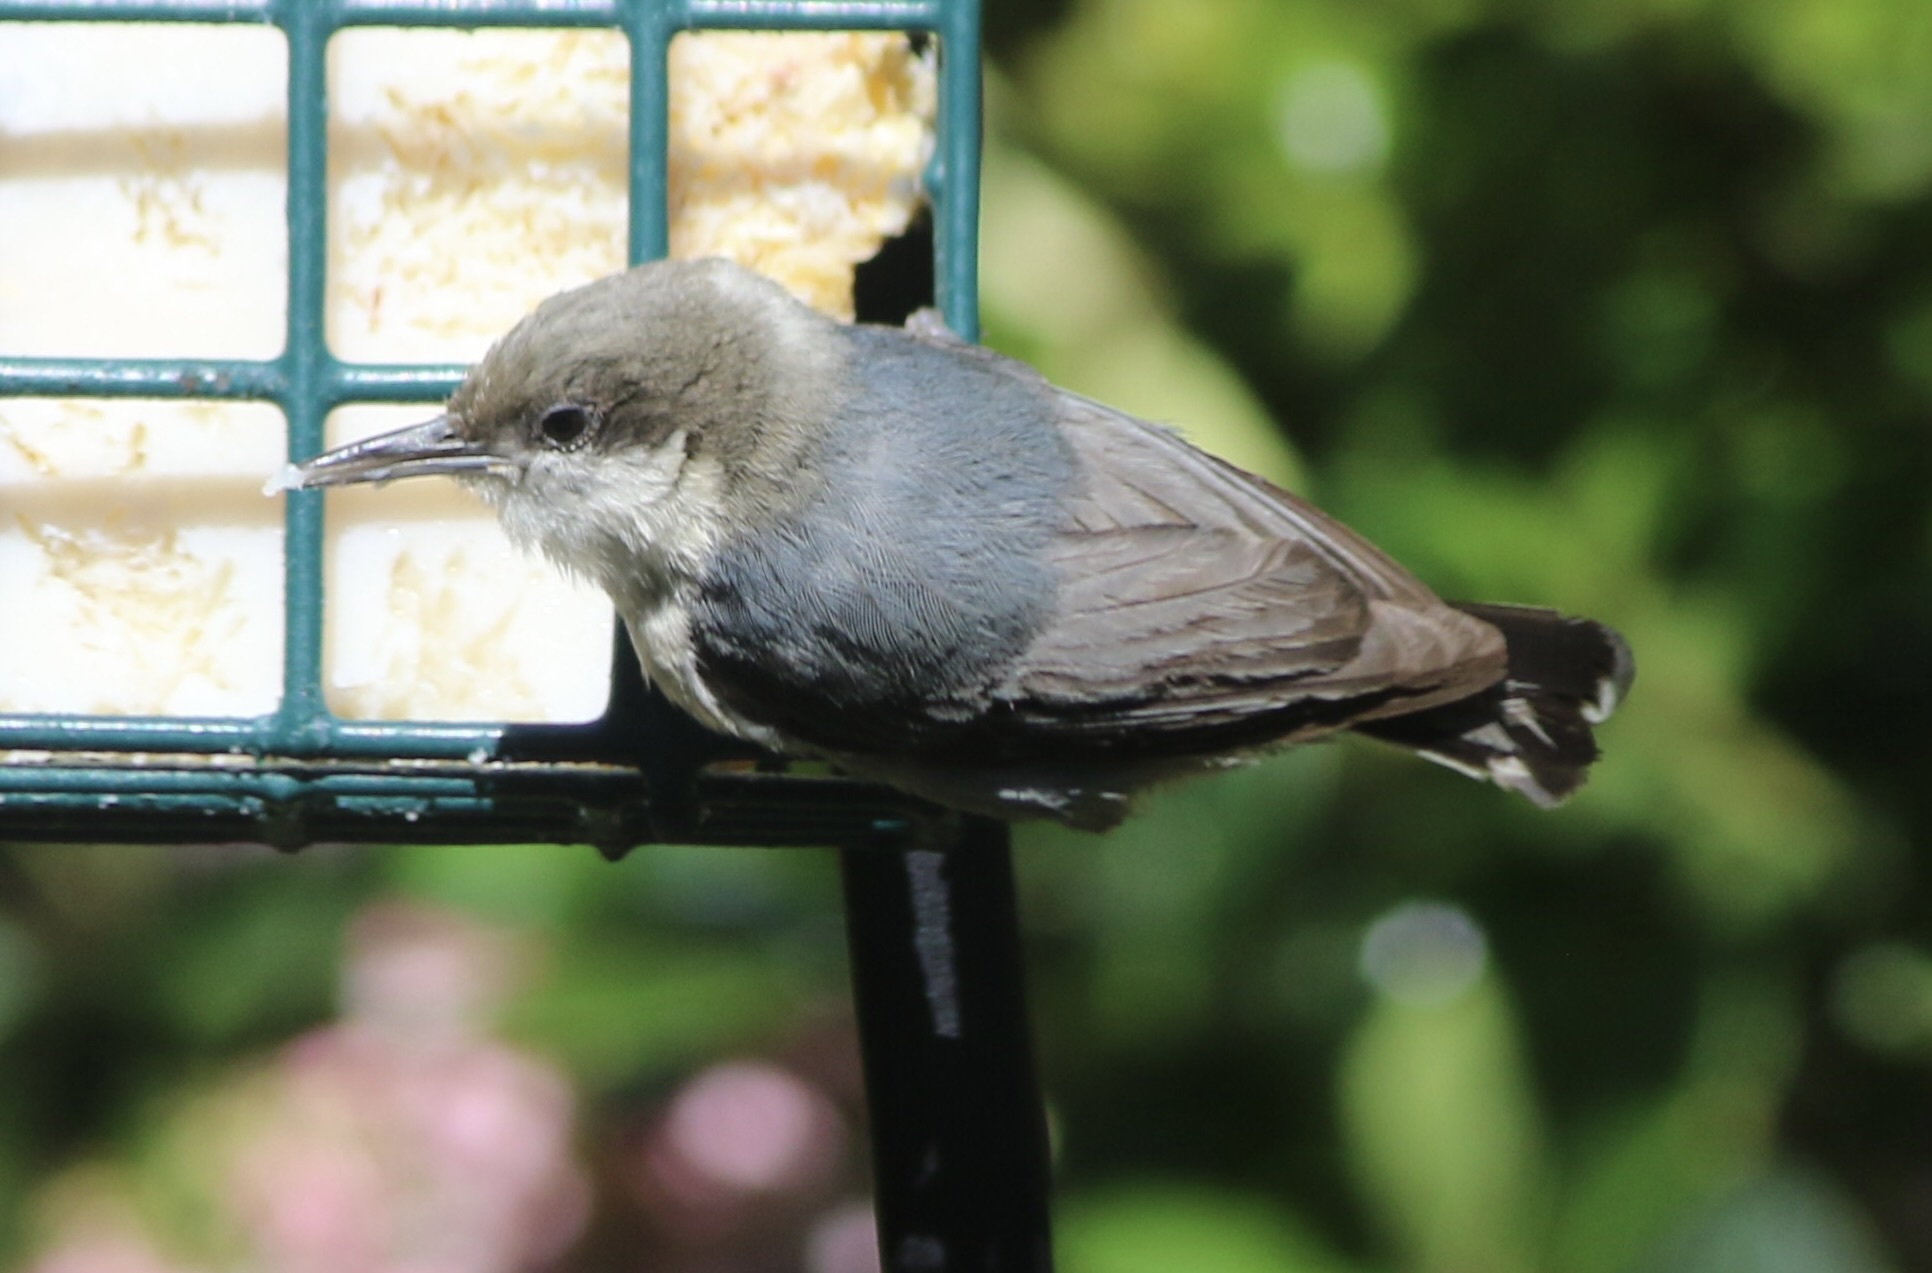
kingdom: Animalia
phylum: Chordata
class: Aves
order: Passeriformes
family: Sittidae
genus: Sitta
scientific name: Sitta pygmaea
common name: Pygmy nuthatch
